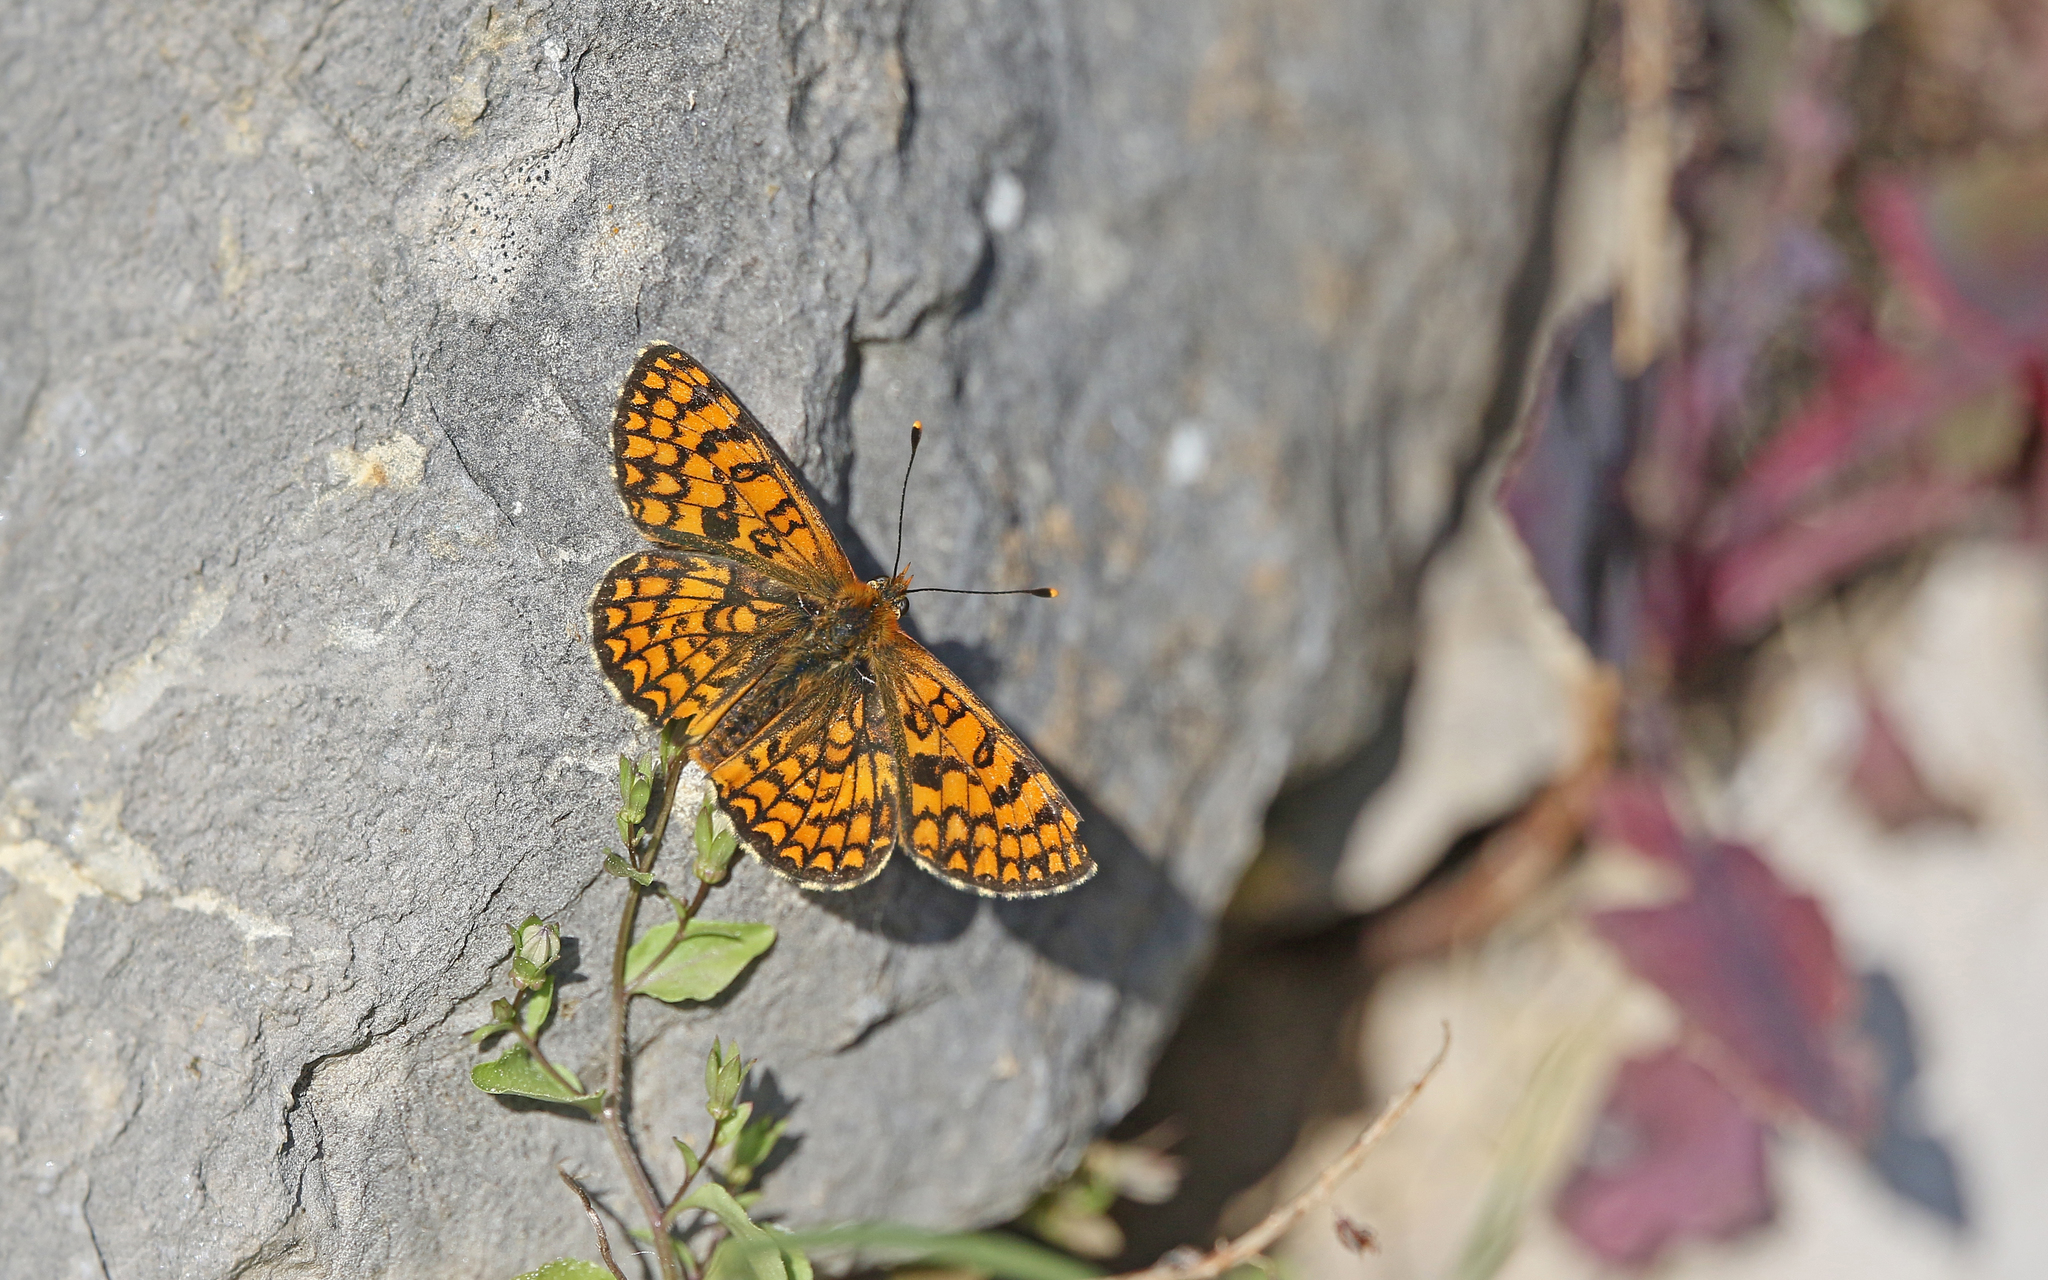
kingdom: Animalia
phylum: Arthropoda
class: Insecta
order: Lepidoptera
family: Nymphalidae
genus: Melitaea
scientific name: Melitaea deione
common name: Provençal fritillary
